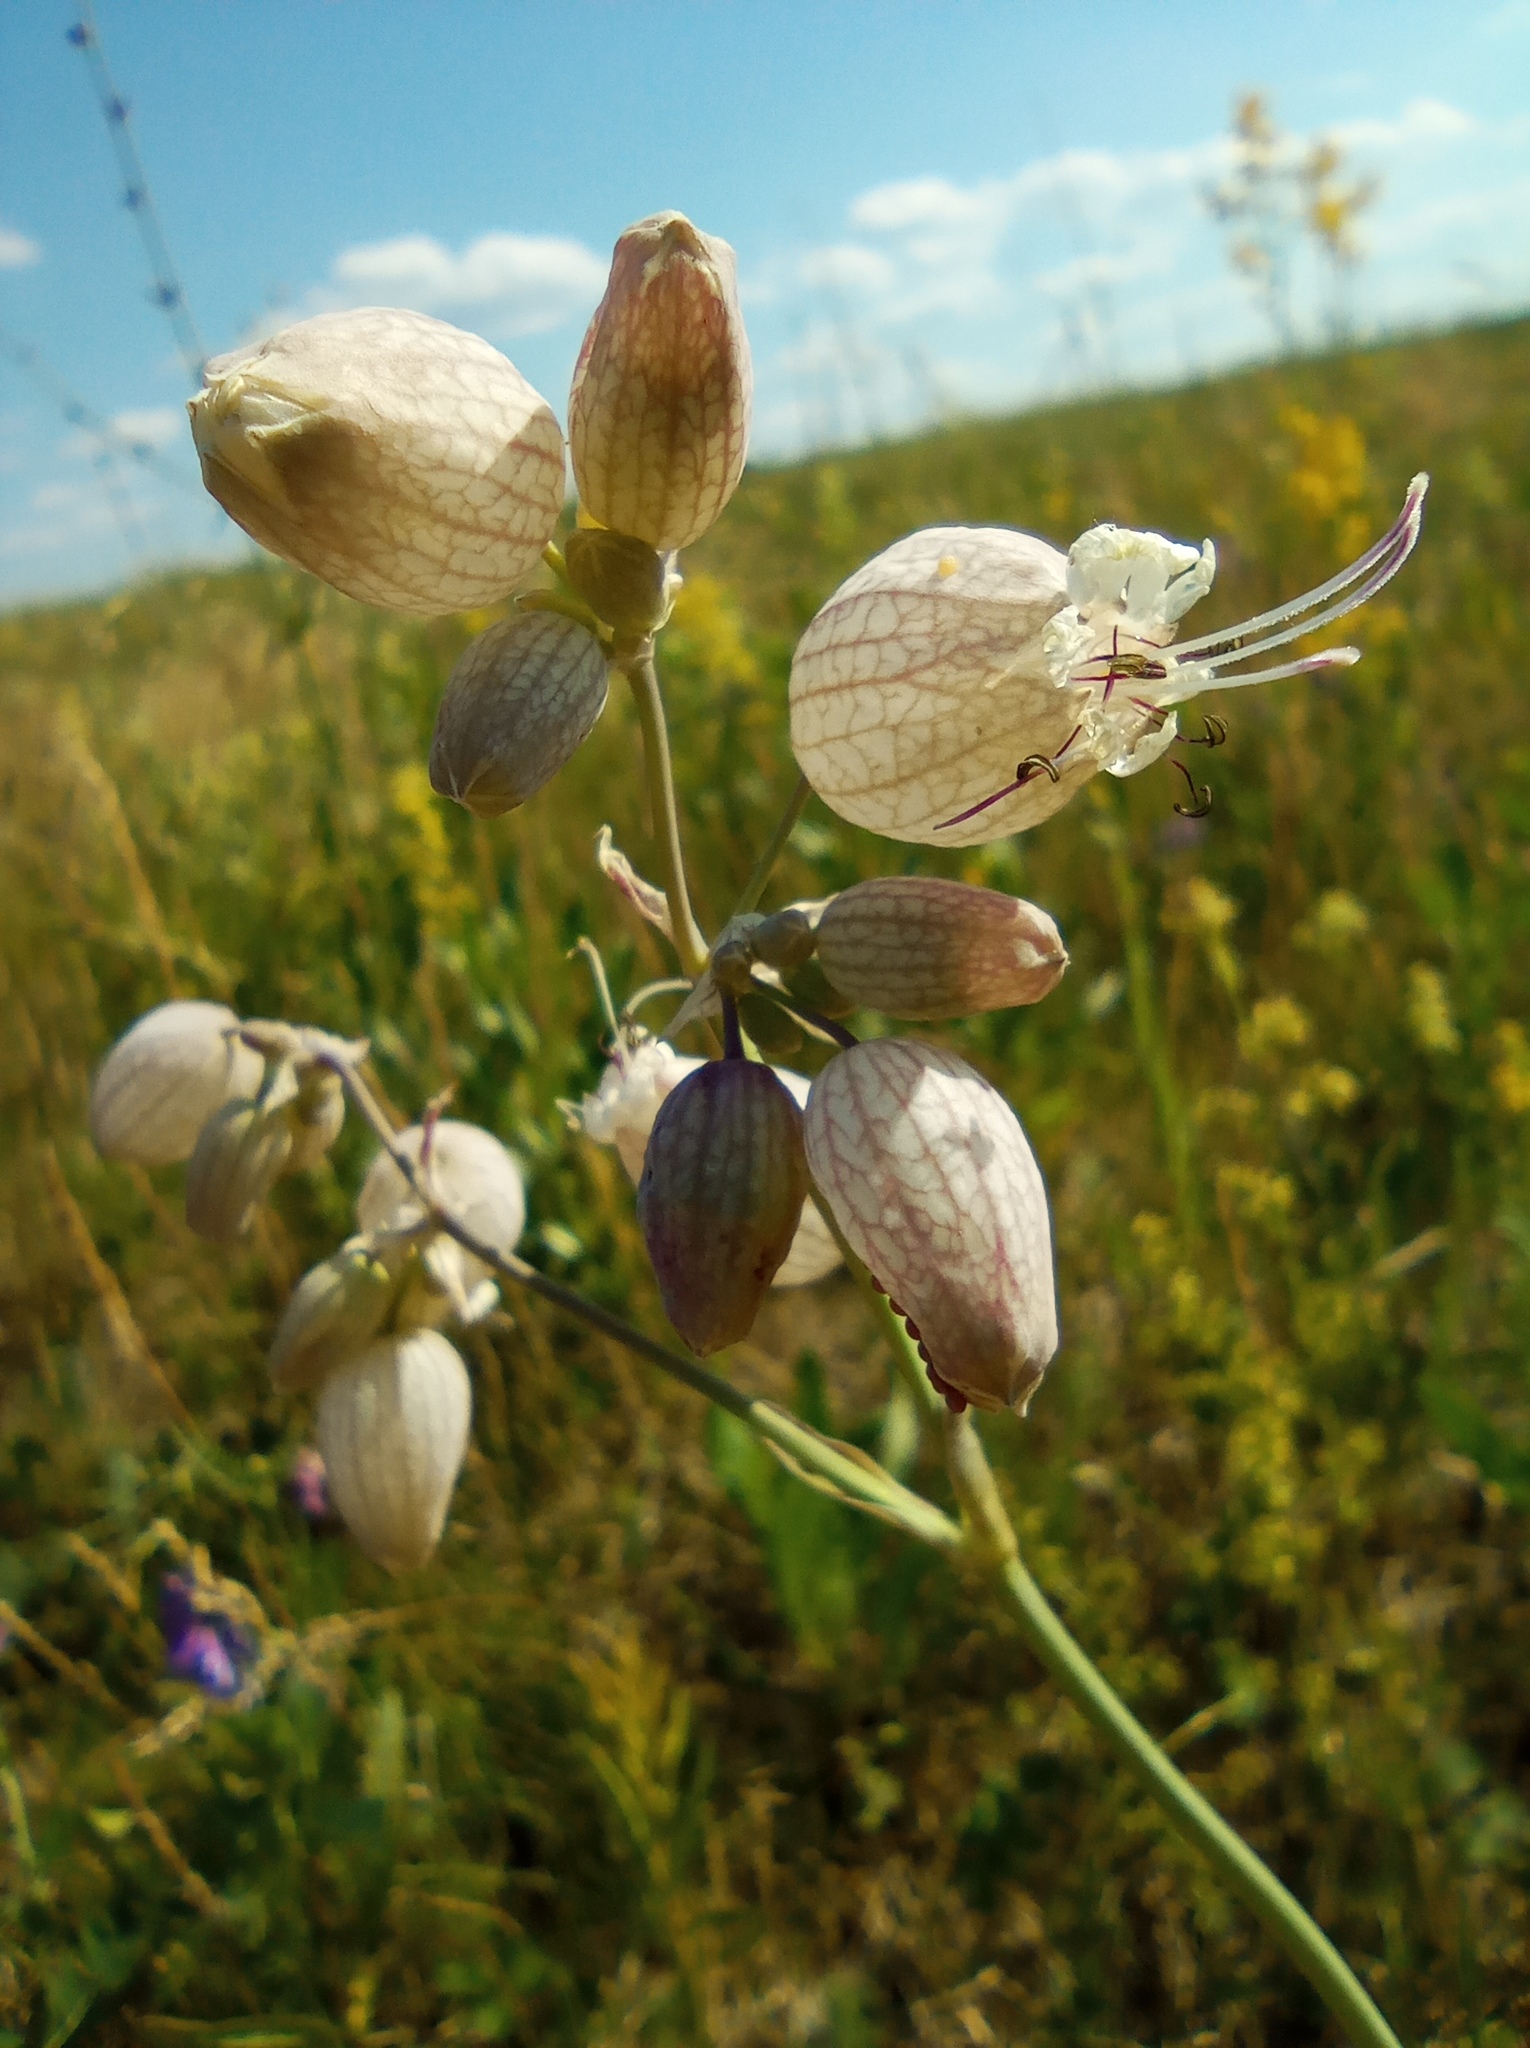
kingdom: Plantae
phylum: Tracheophyta
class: Magnoliopsida
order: Caryophyllales
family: Caryophyllaceae
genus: Silene
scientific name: Silene vulgaris
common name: Bladder campion
